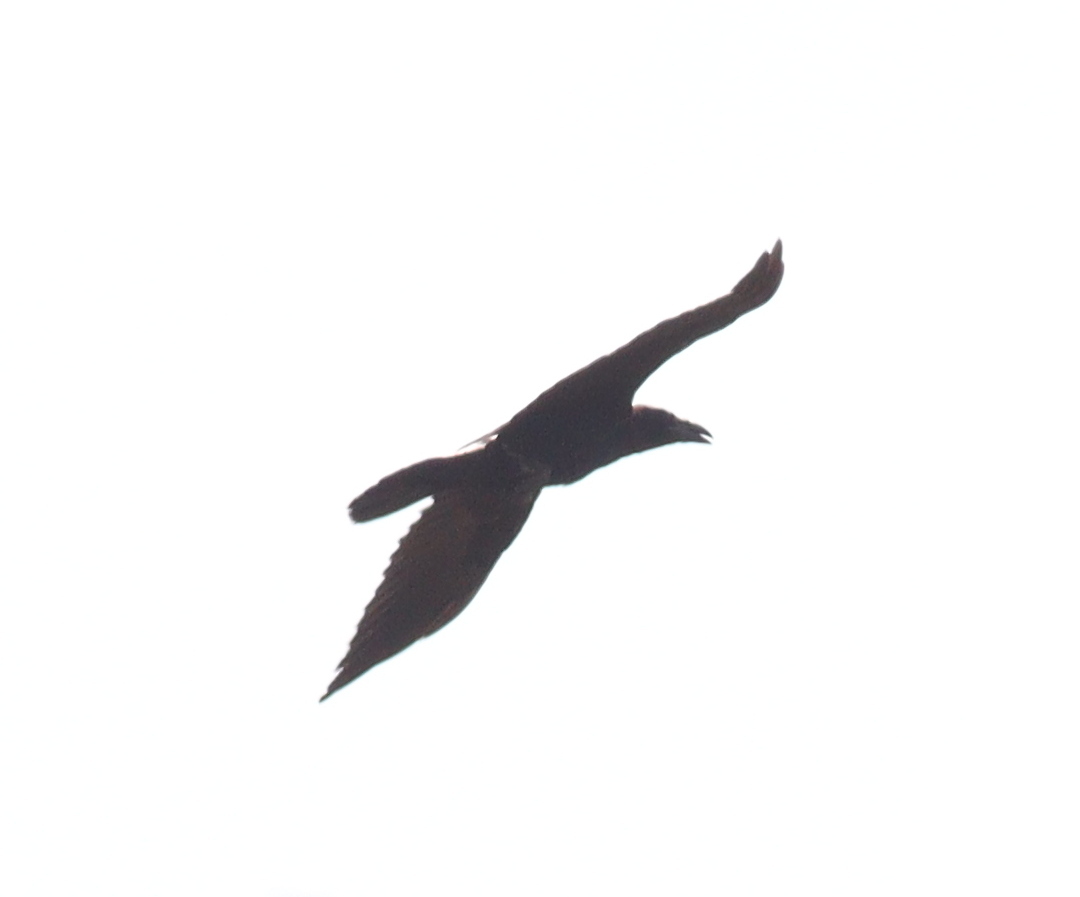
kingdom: Animalia
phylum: Chordata
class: Aves
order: Passeriformes
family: Corvidae
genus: Corvus
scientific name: Corvus corax
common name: Common raven
